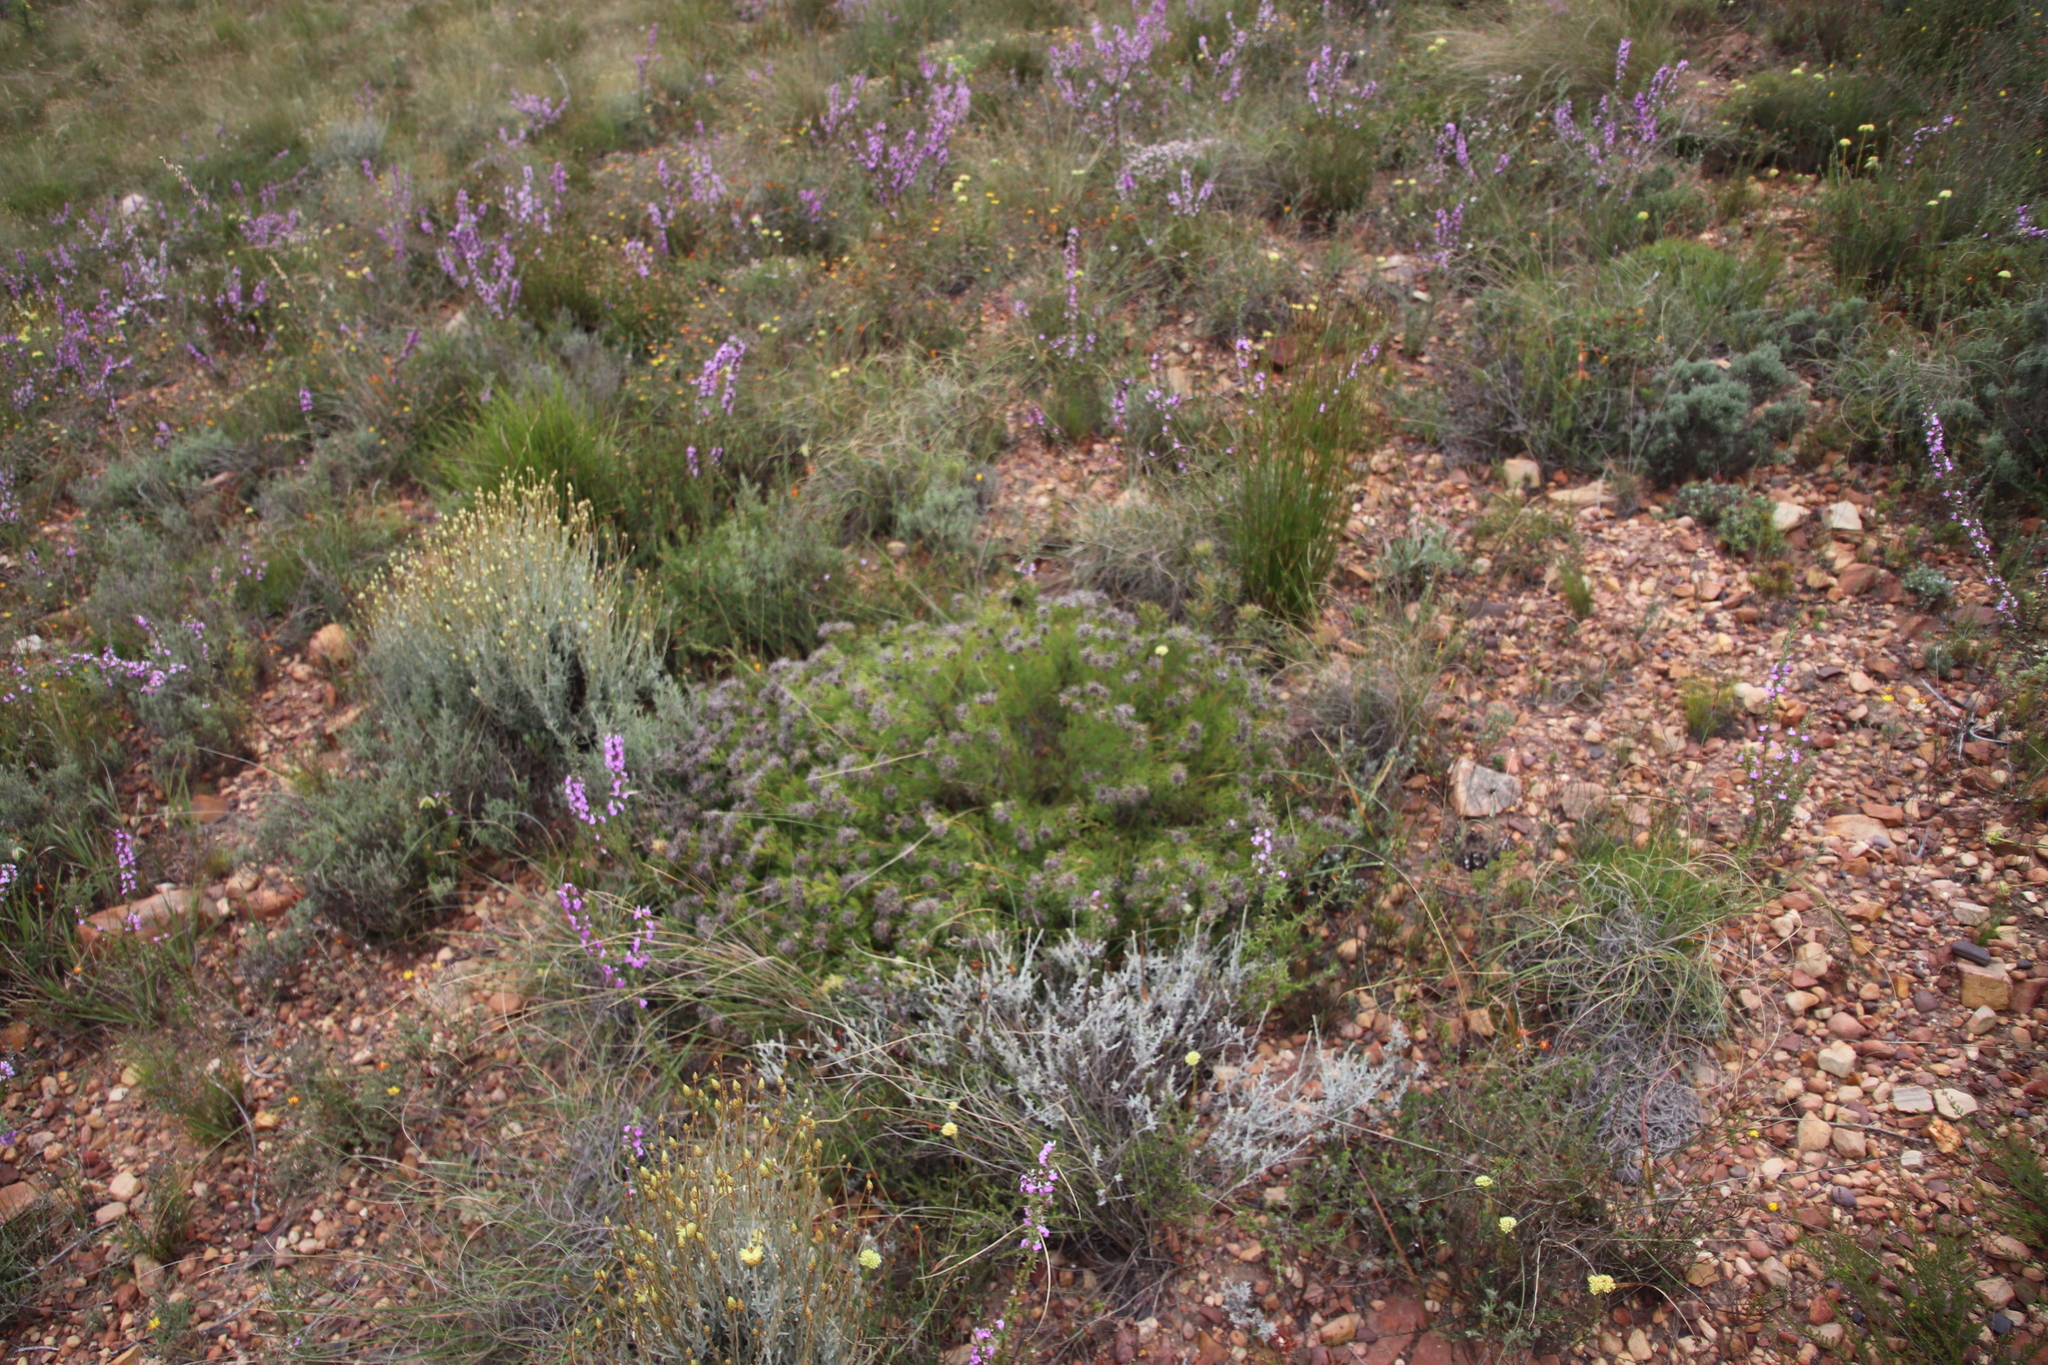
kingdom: Plantae
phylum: Tracheophyta
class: Magnoliopsida
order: Proteales
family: Proteaceae
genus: Serruria
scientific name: Serruria
